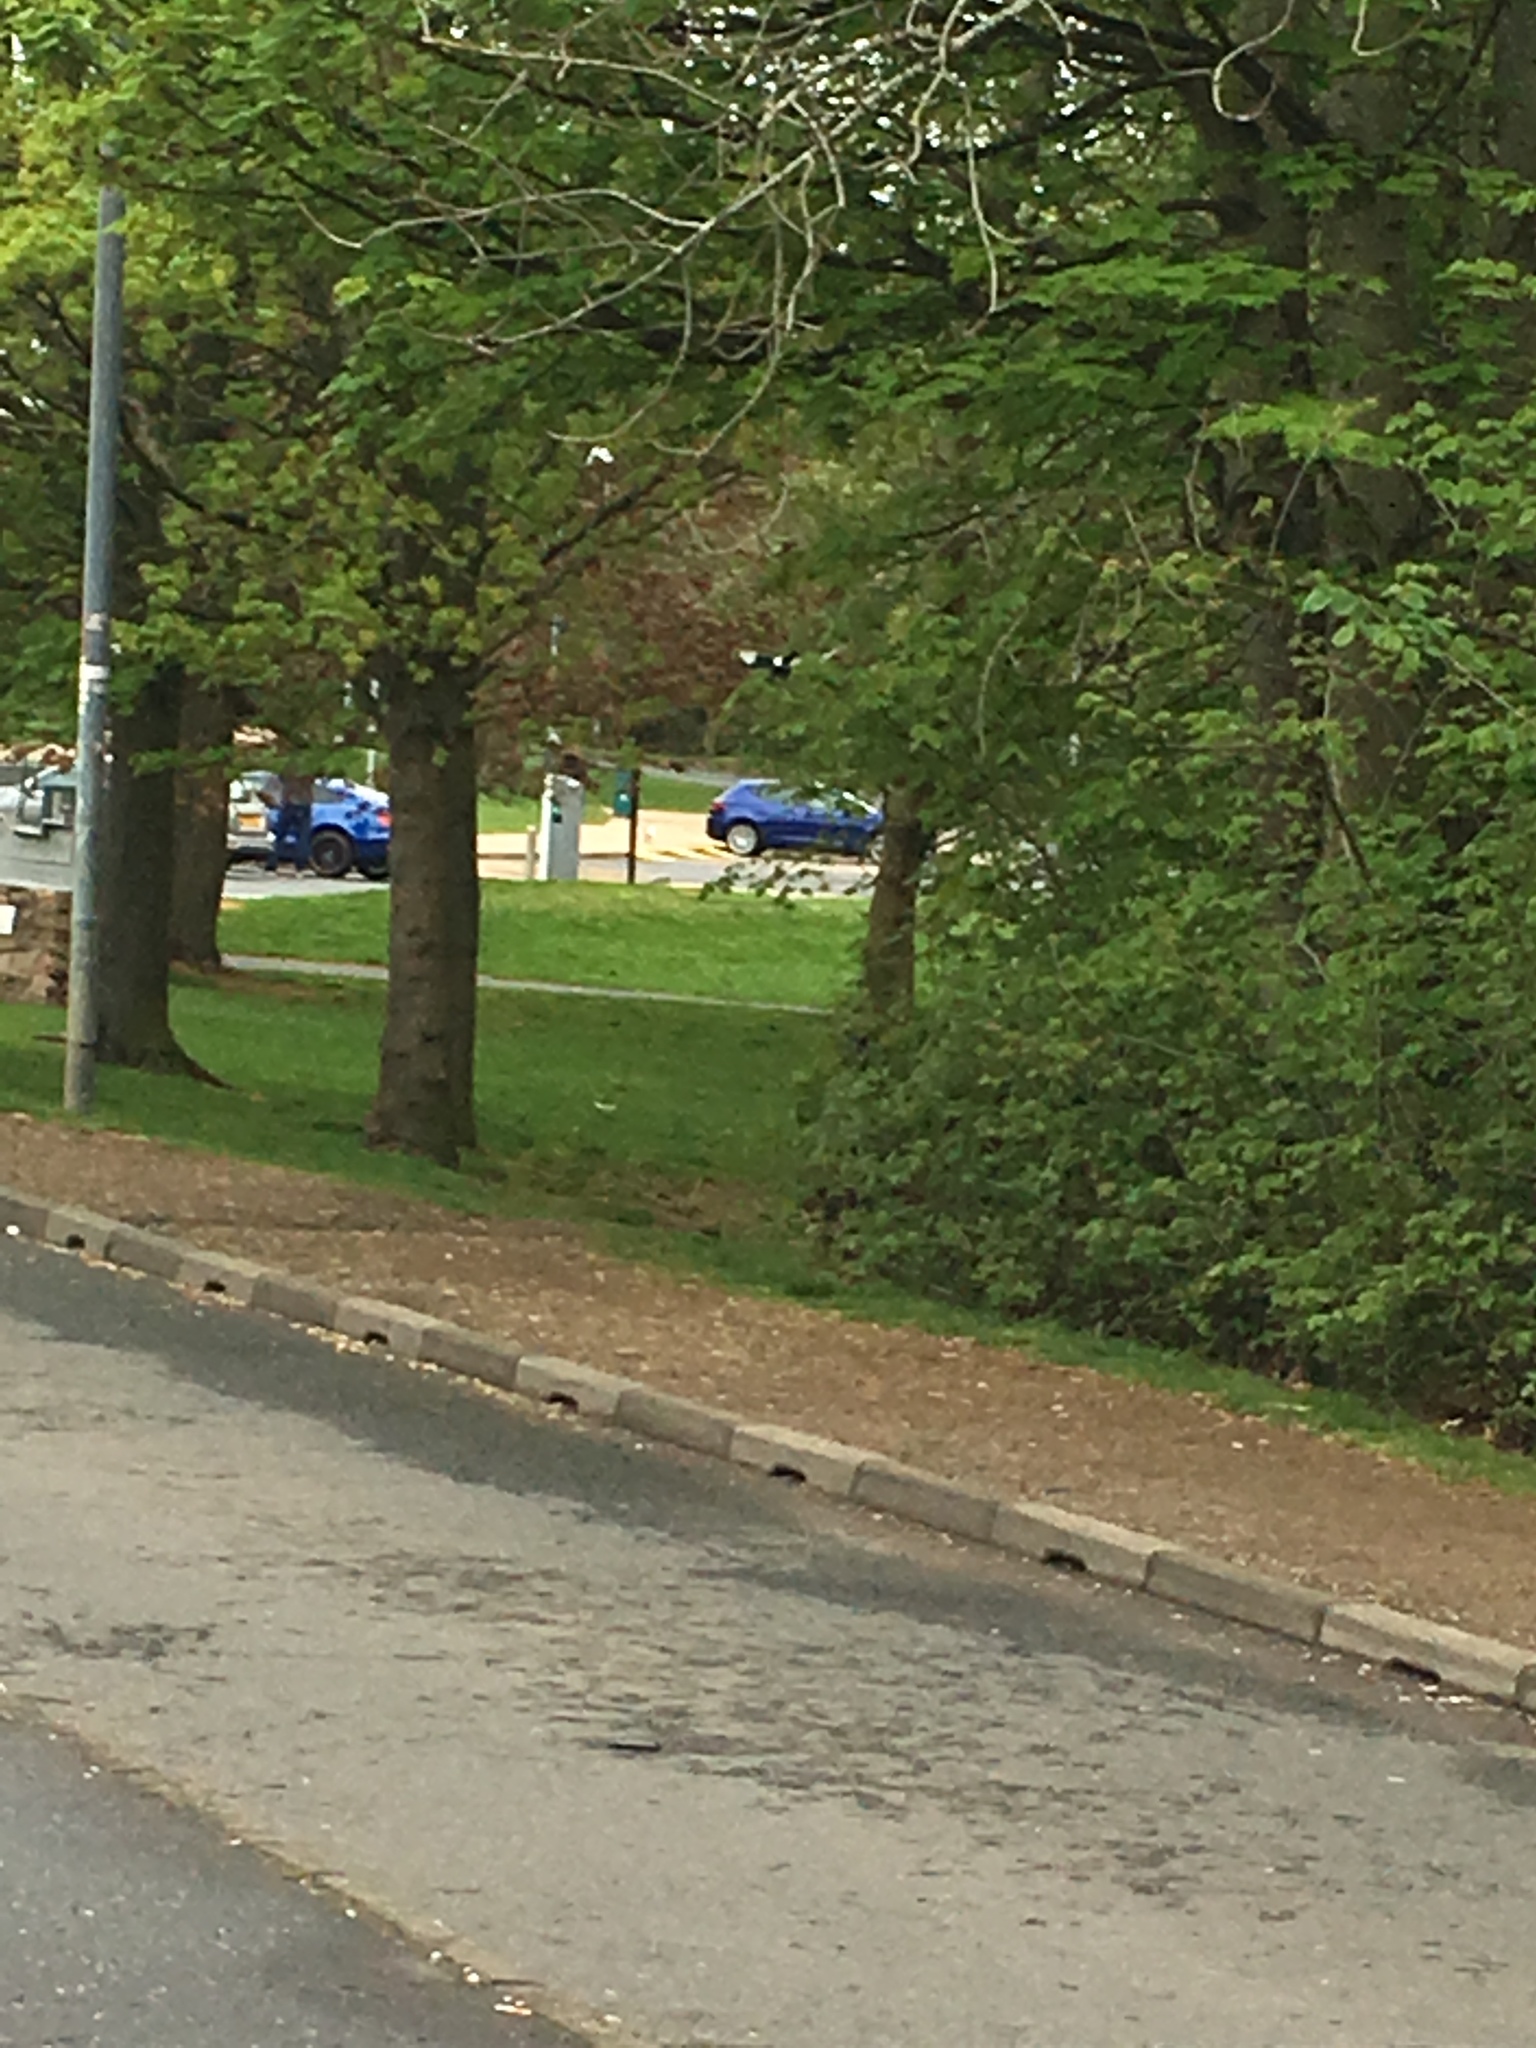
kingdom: Animalia
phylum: Chordata
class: Aves
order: Passeriformes
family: Corvidae
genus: Pica
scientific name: Pica pica
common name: Eurasian magpie
